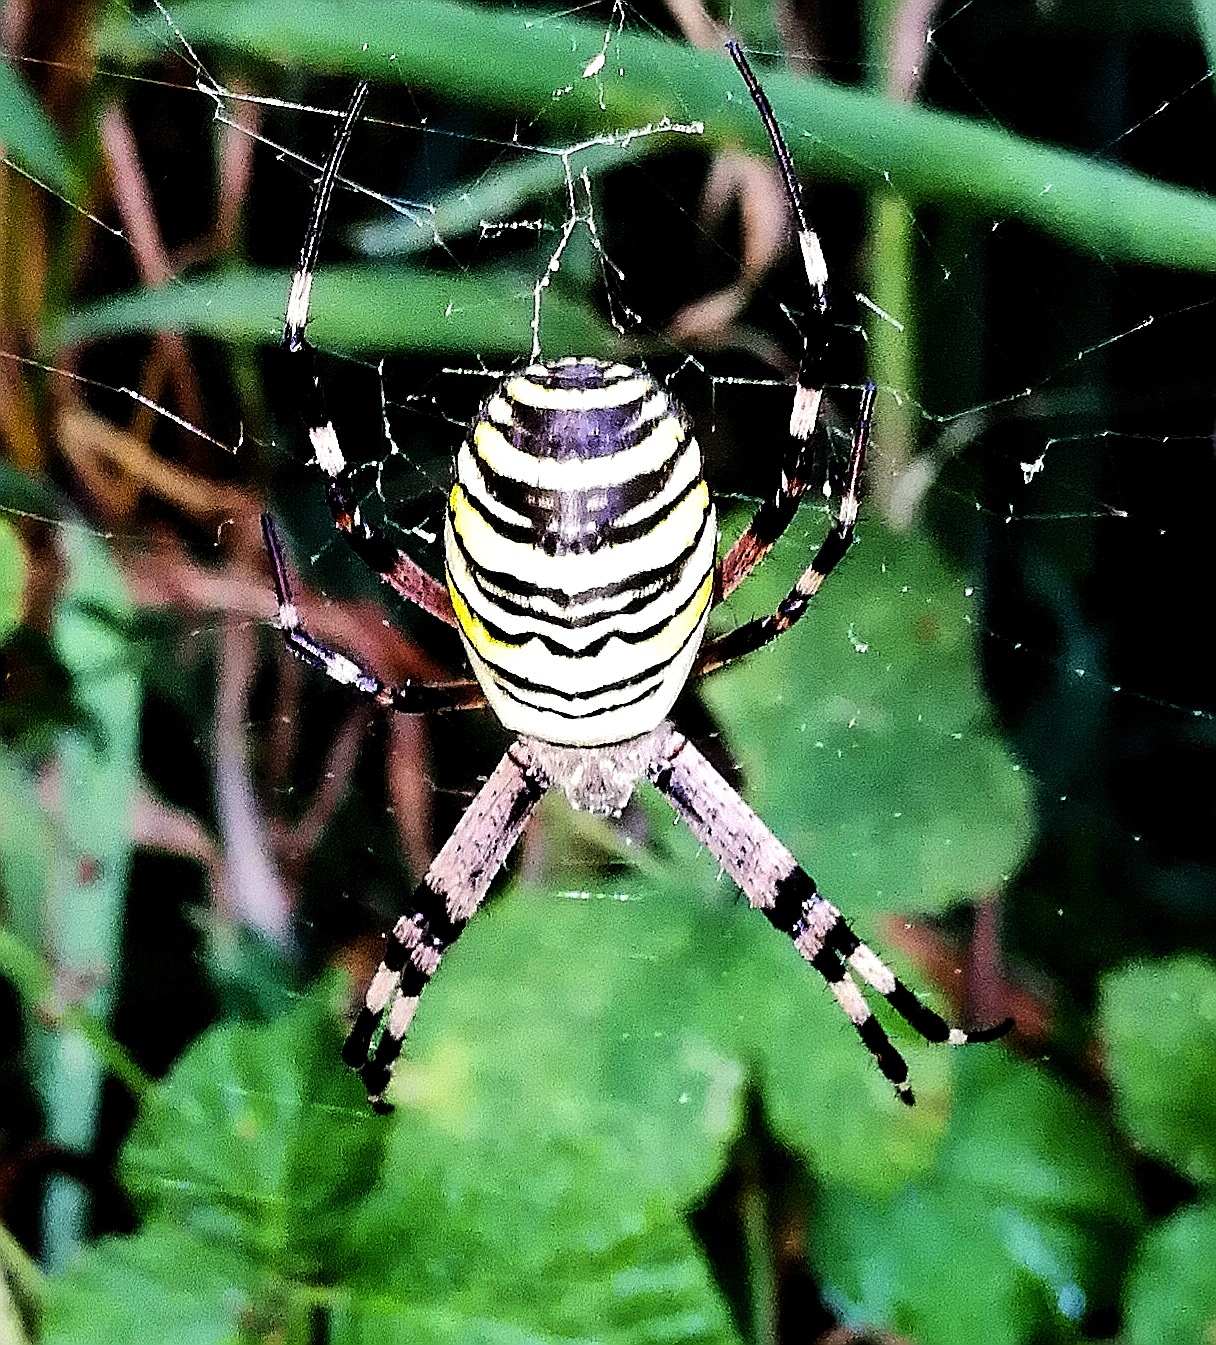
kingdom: Animalia
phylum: Arthropoda
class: Arachnida
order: Araneae
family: Araneidae
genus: Argiope
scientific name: Argiope bruennichi
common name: Wasp spider
